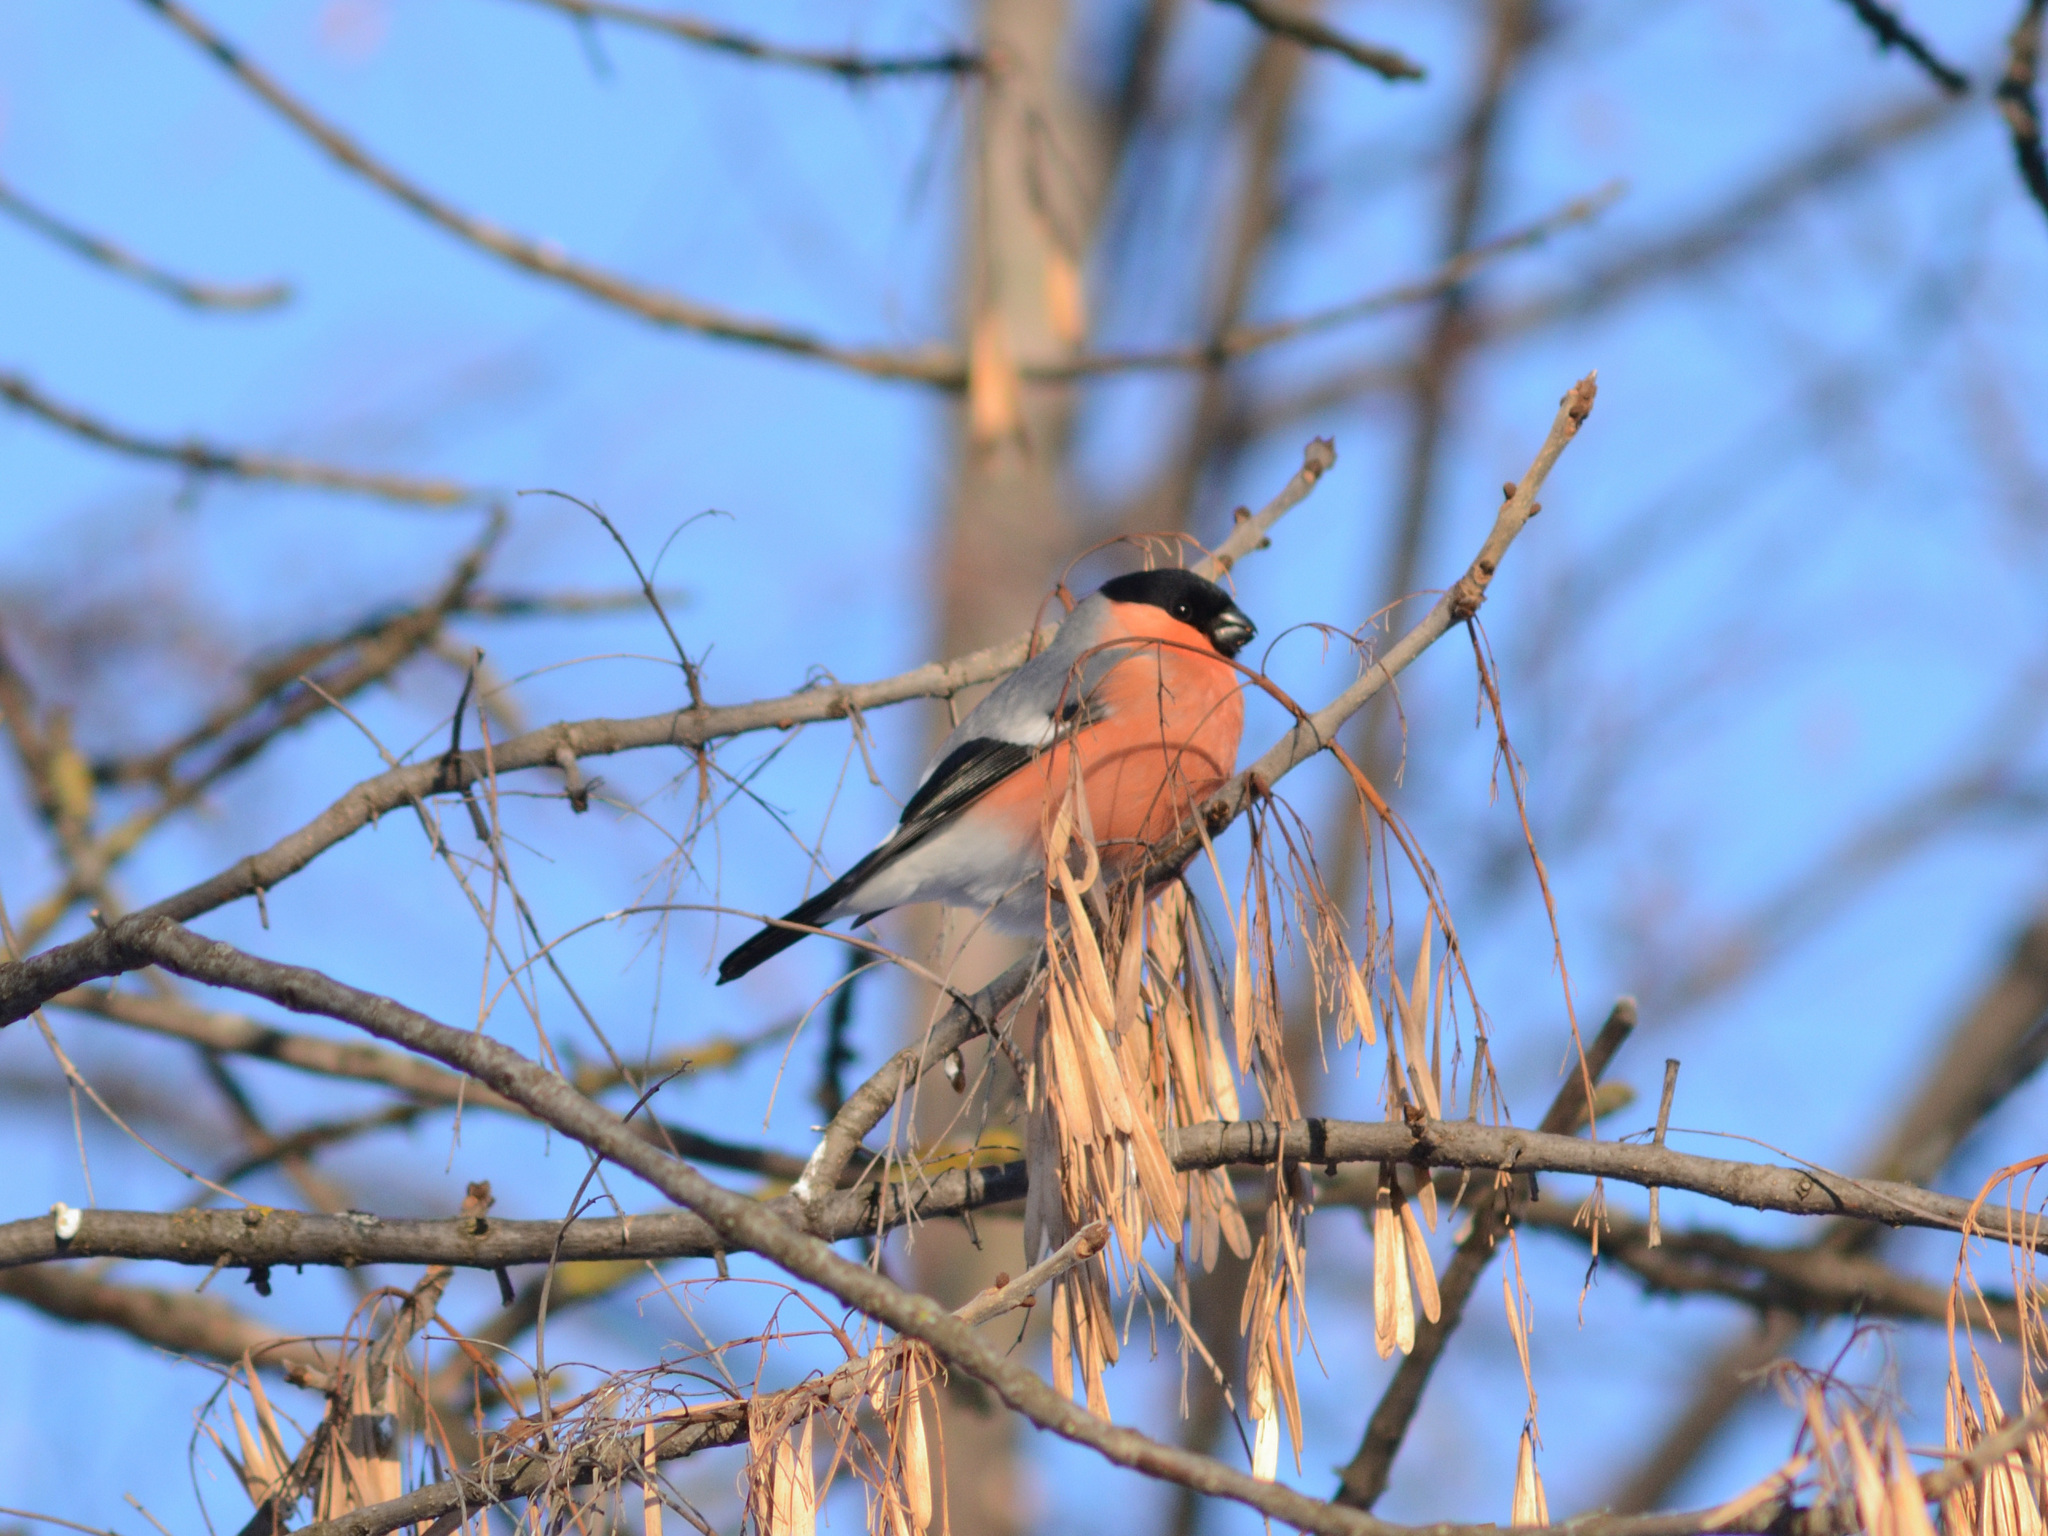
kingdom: Animalia
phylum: Chordata
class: Aves
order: Passeriformes
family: Fringillidae
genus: Pyrrhula
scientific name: Pyrrhula pyrrhula
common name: Eurasian bullfinch
